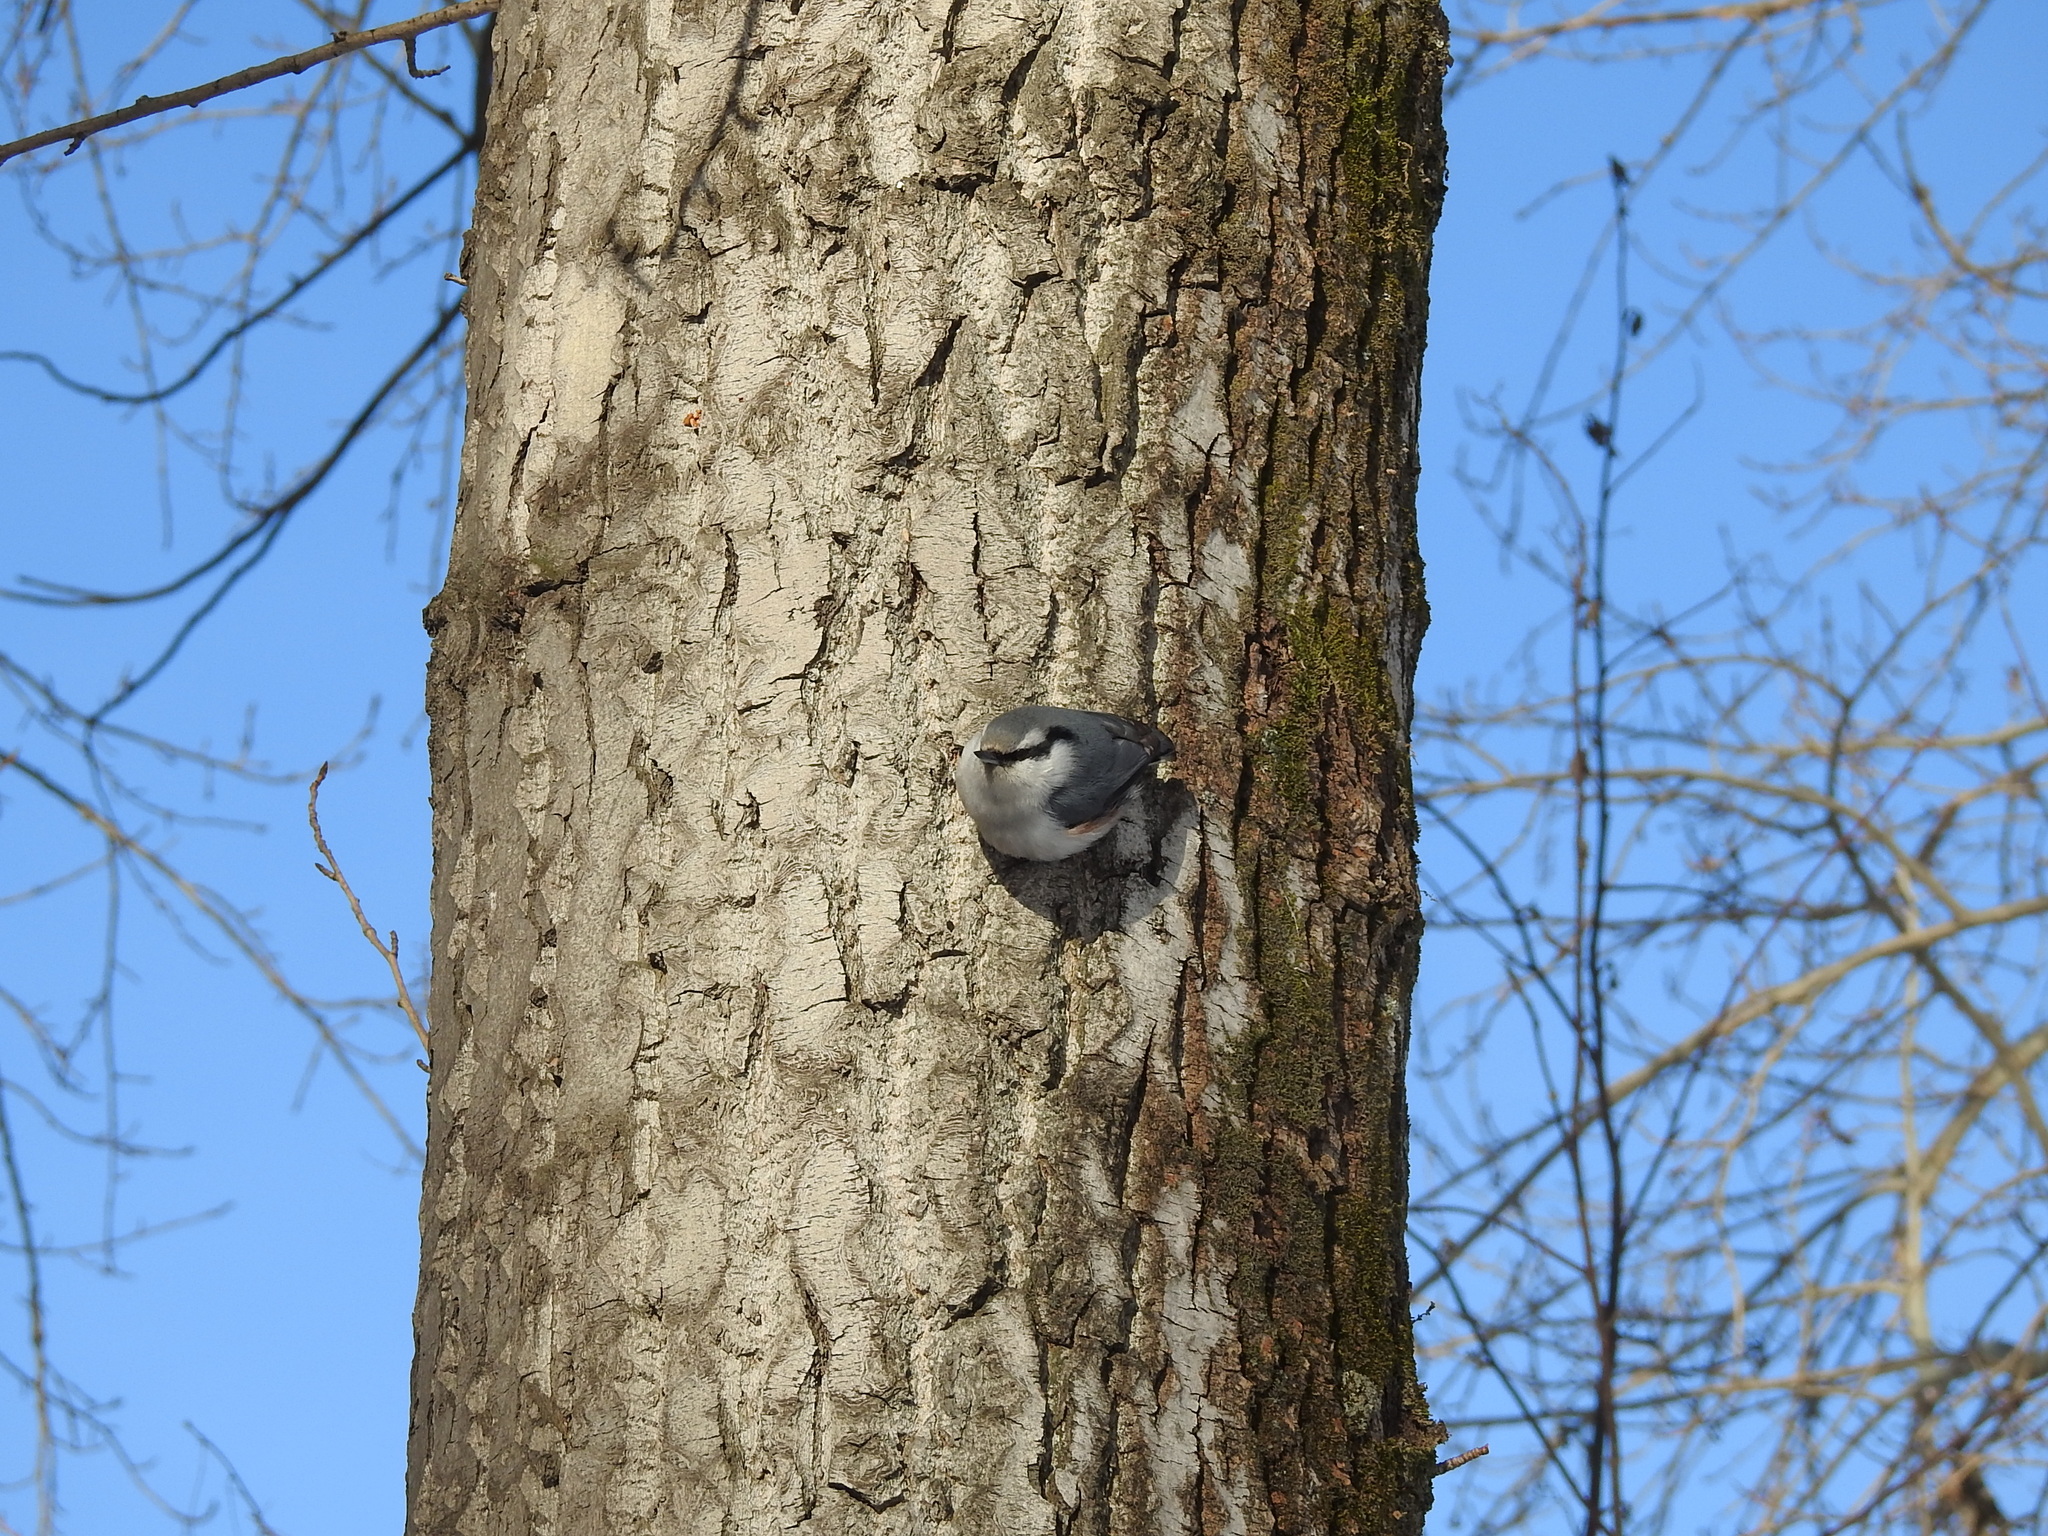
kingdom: Animalia
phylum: Chordata
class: Aves
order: Passeriformes
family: Sittidae
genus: Sitta
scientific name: Sitta europaea
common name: Eurasian nuthatch
